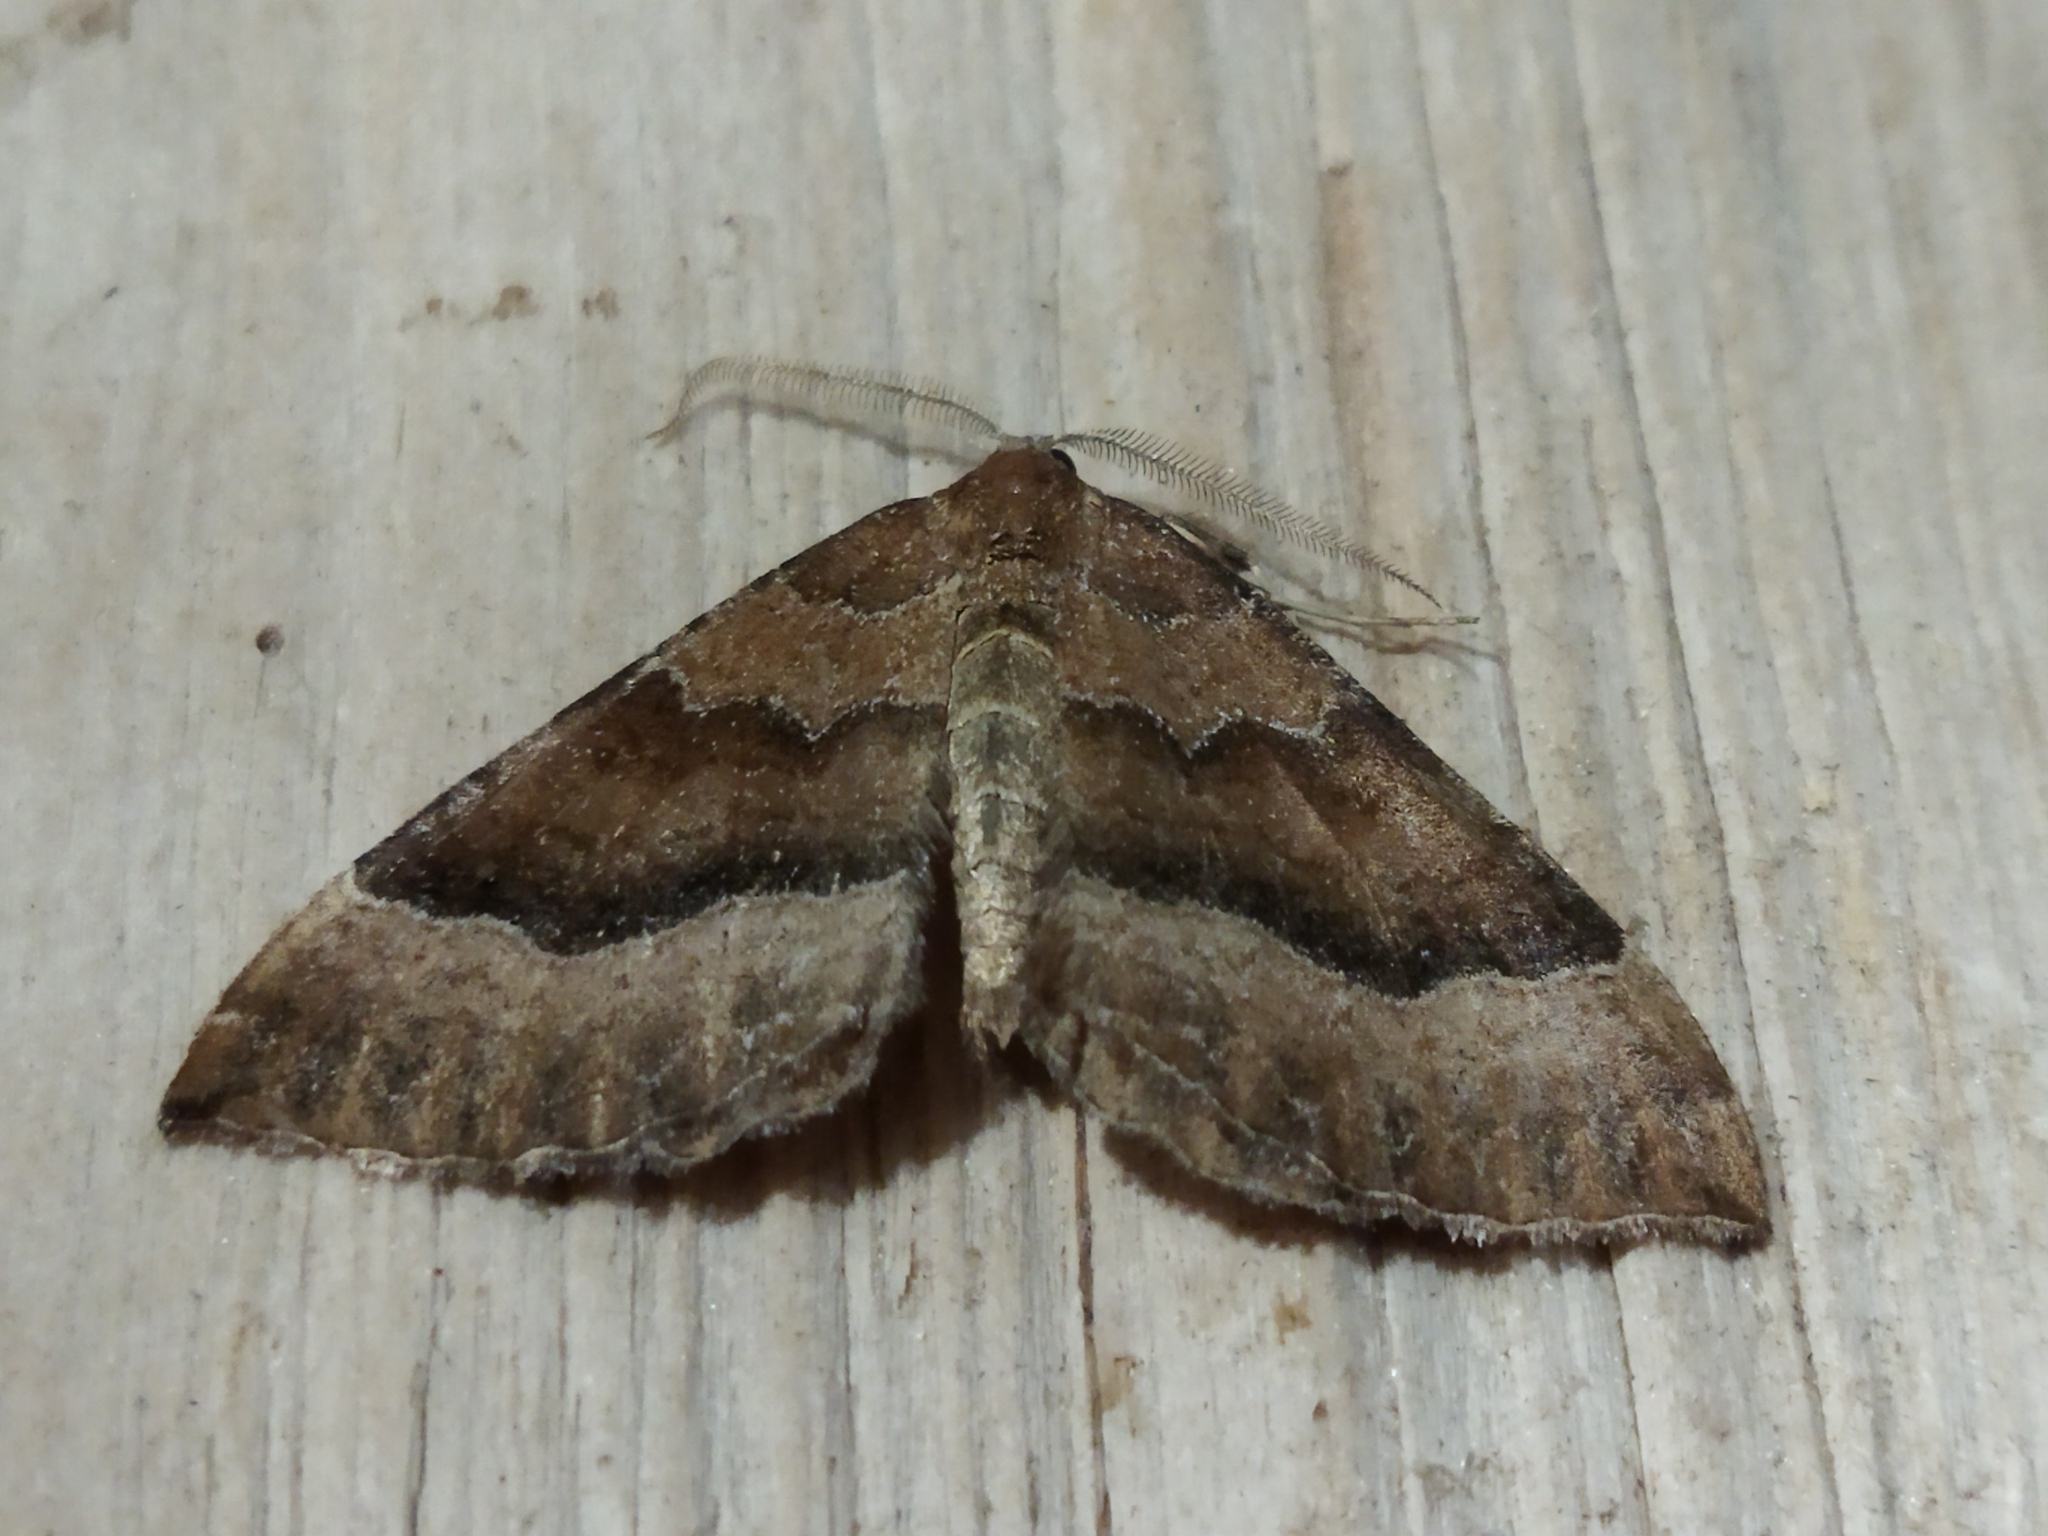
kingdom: Animalia
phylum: Arthropoda
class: Insecta
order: Lepidoptera
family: Geometridae
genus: Larentia
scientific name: Larentia clavaria
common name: Mallow
